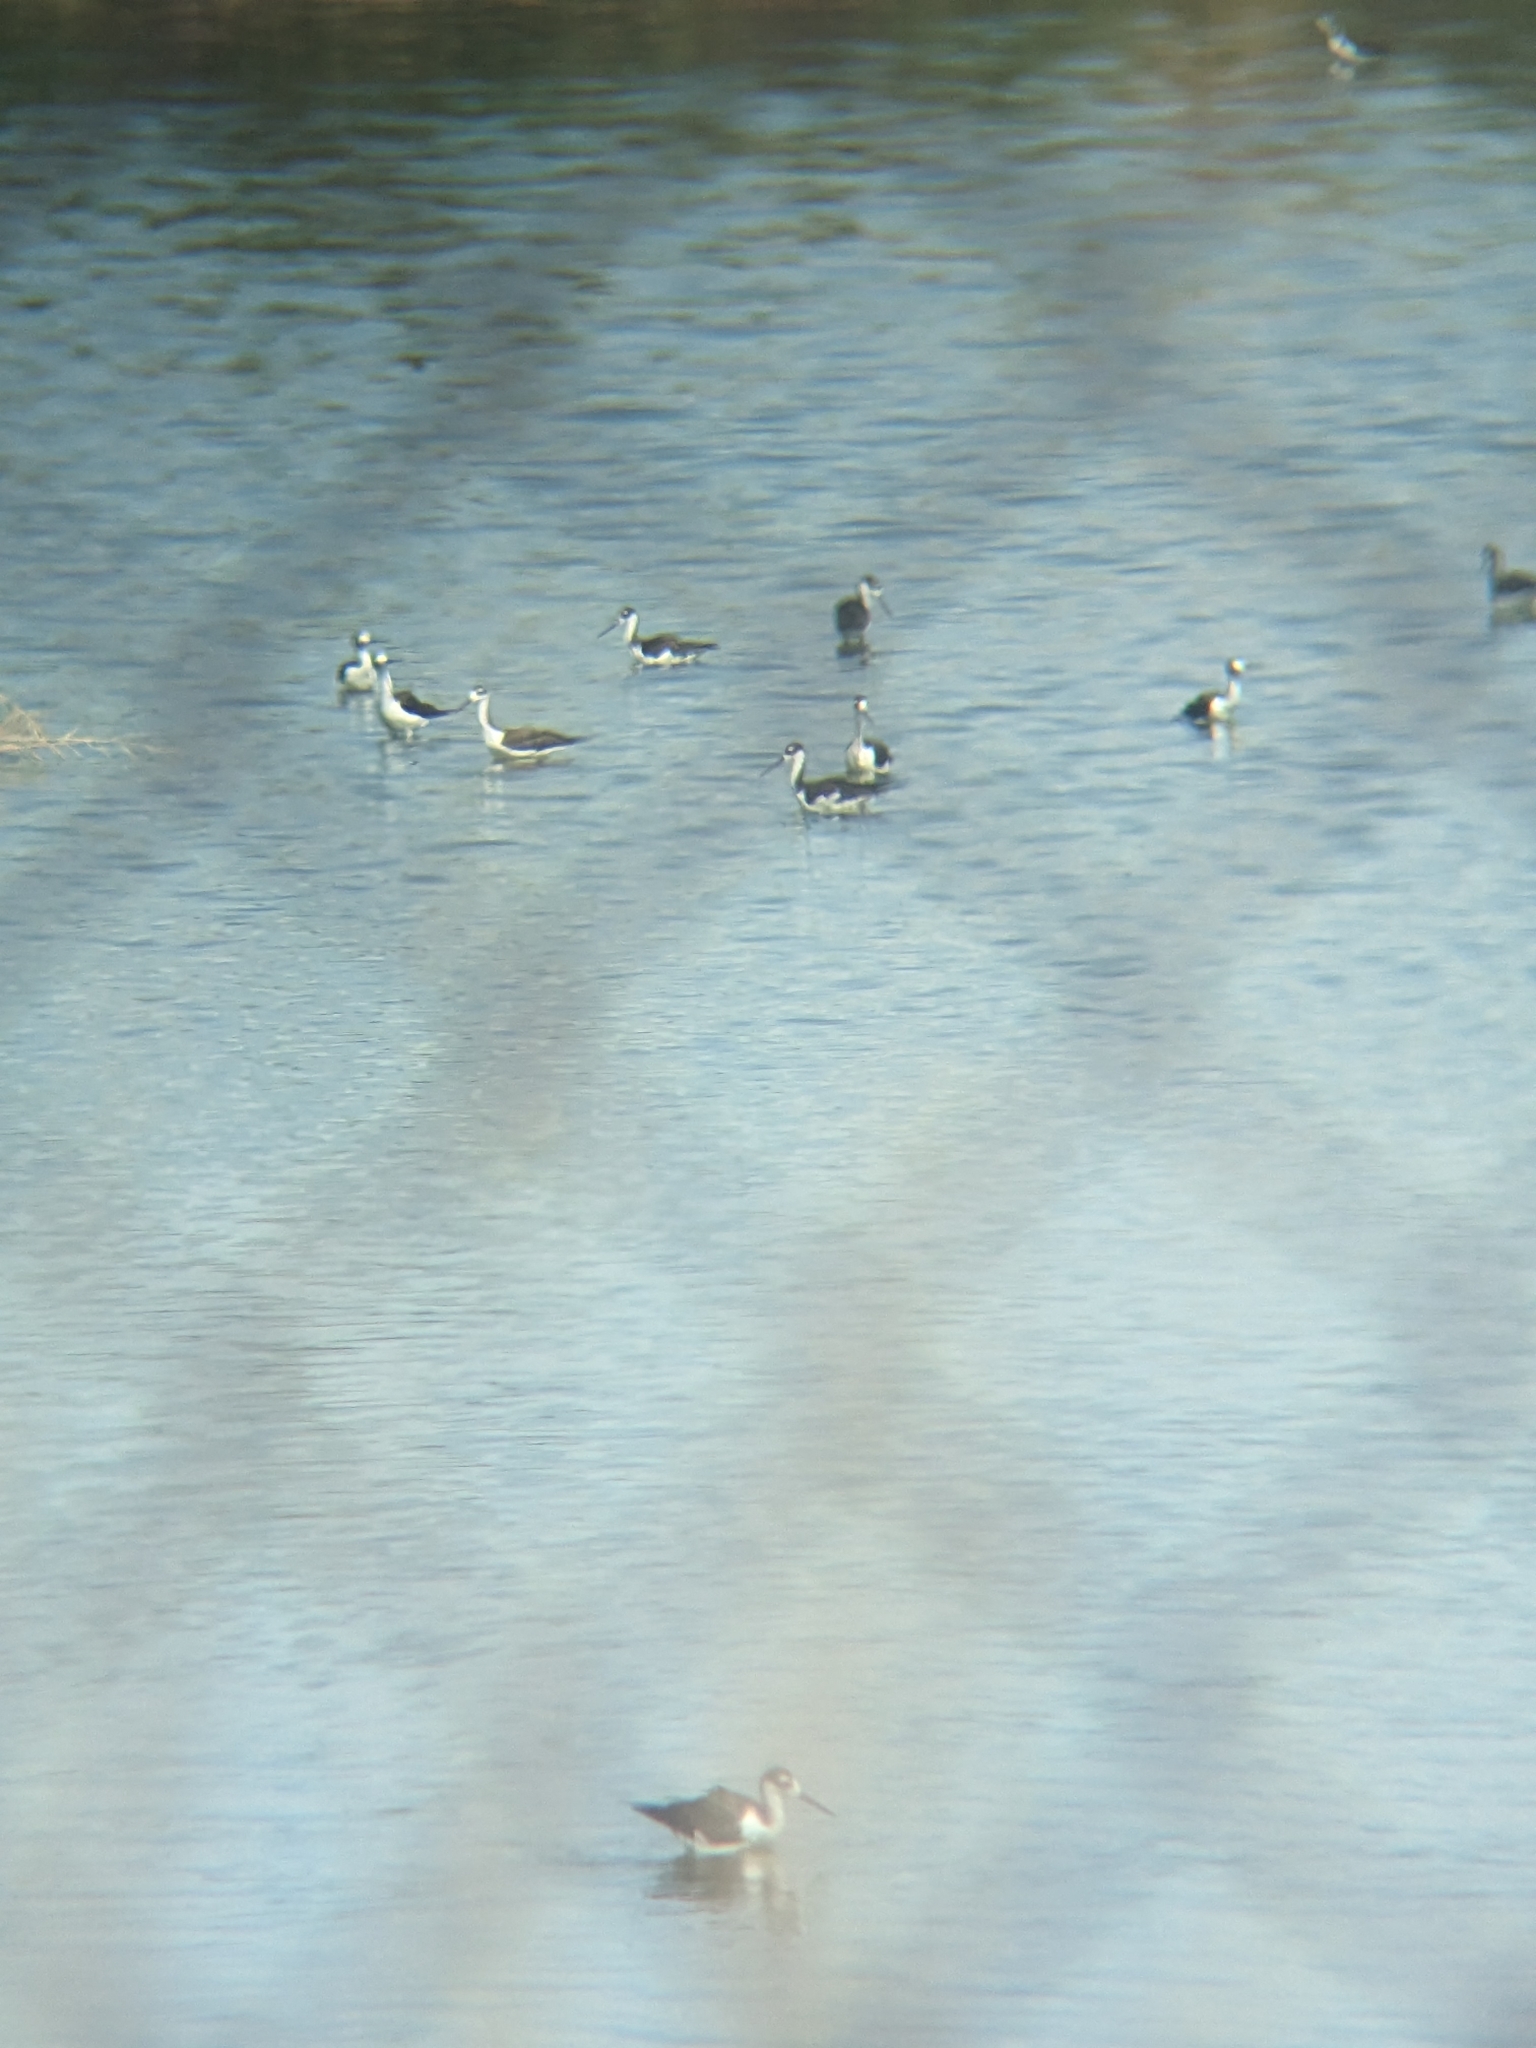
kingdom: Animalia
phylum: Chordata
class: Aves
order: Charadriiformes
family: Recurvirostridae
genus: Himantopus
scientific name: Himantopus mexicanus
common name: Black-necked stilt
